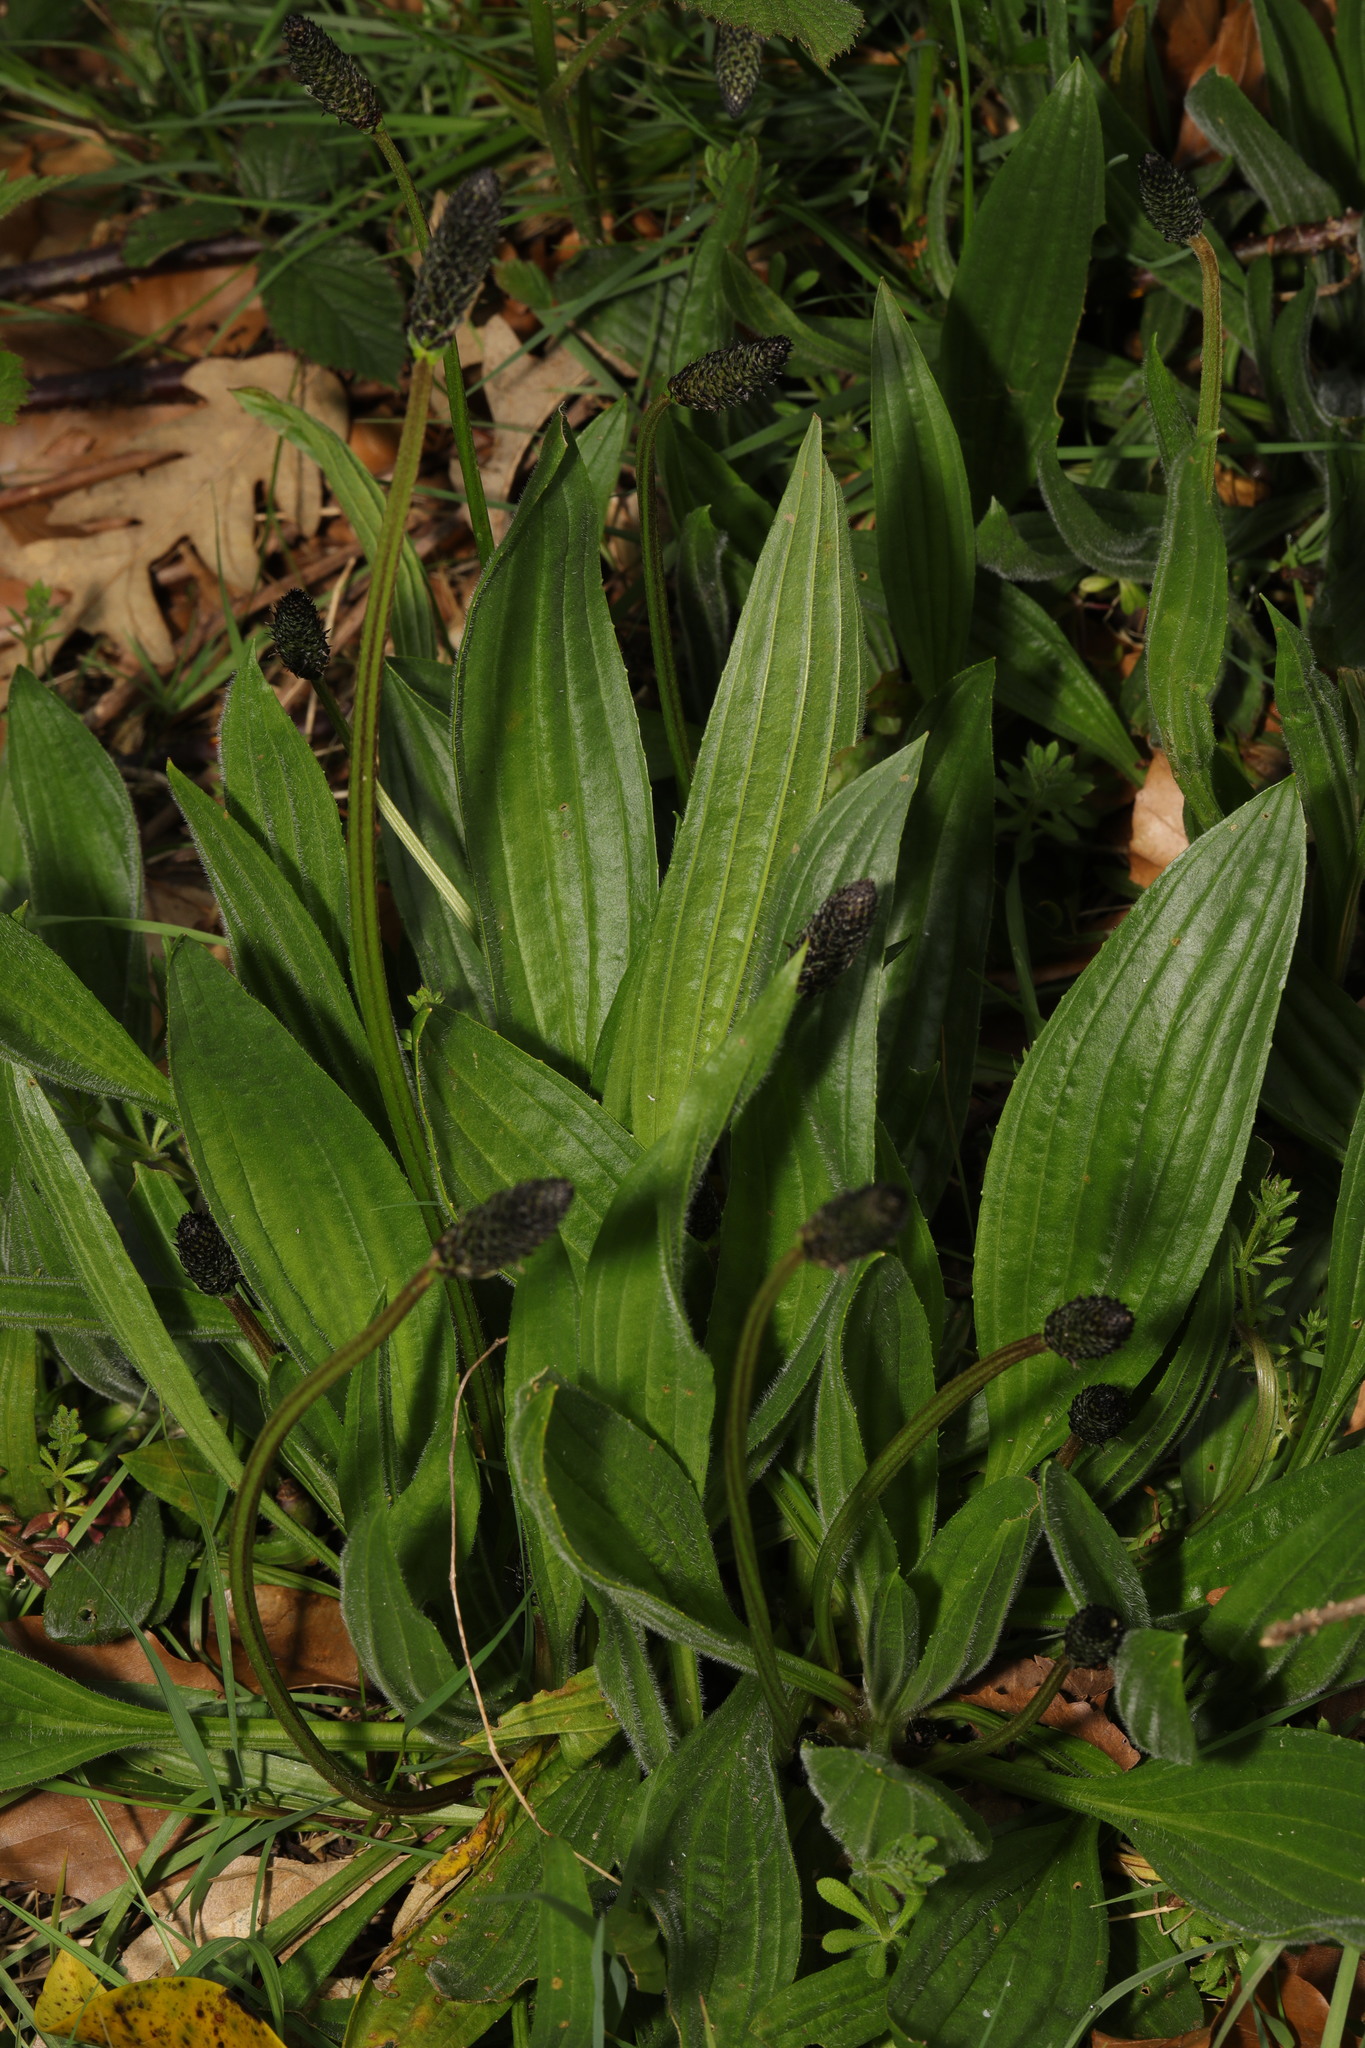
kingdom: Plantae
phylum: Tracheophyta
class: Magnoliopsida
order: Lamiales
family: Plantaginaceae
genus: Plantago
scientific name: Plantago lanceolata
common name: Ribwort plantain
